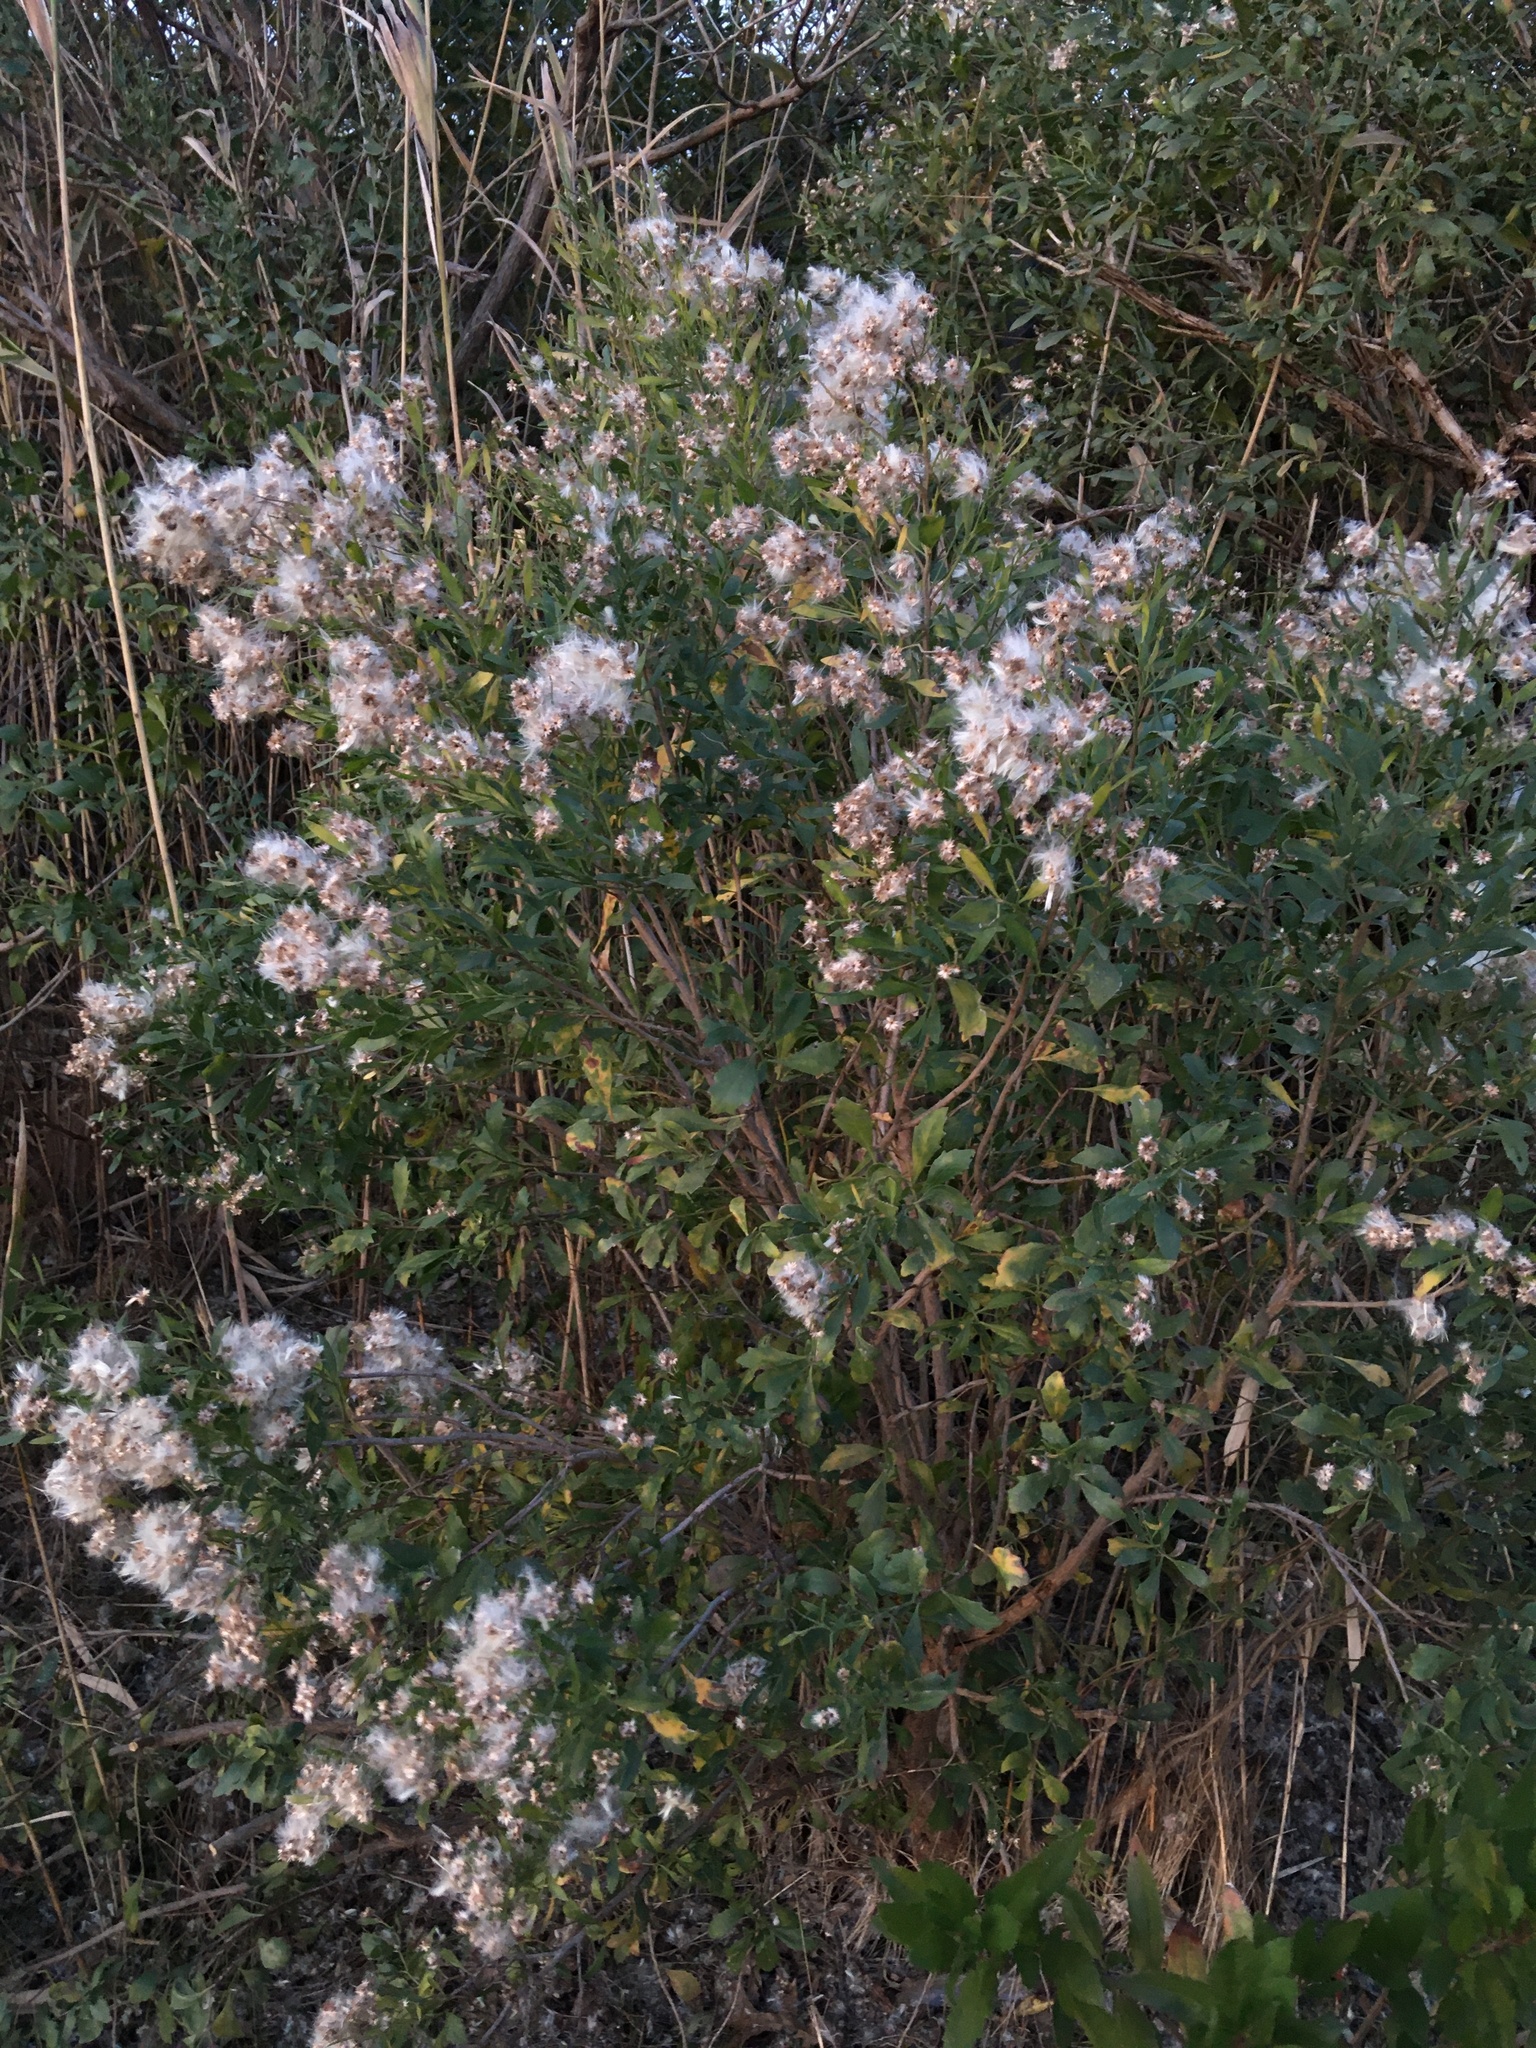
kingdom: Plantae
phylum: Tracheophyta
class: Magnoliopsida
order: Asterales
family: Asteraceae
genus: Baccharis
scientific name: Baccharis halimifolia
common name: Eastern baccharis
